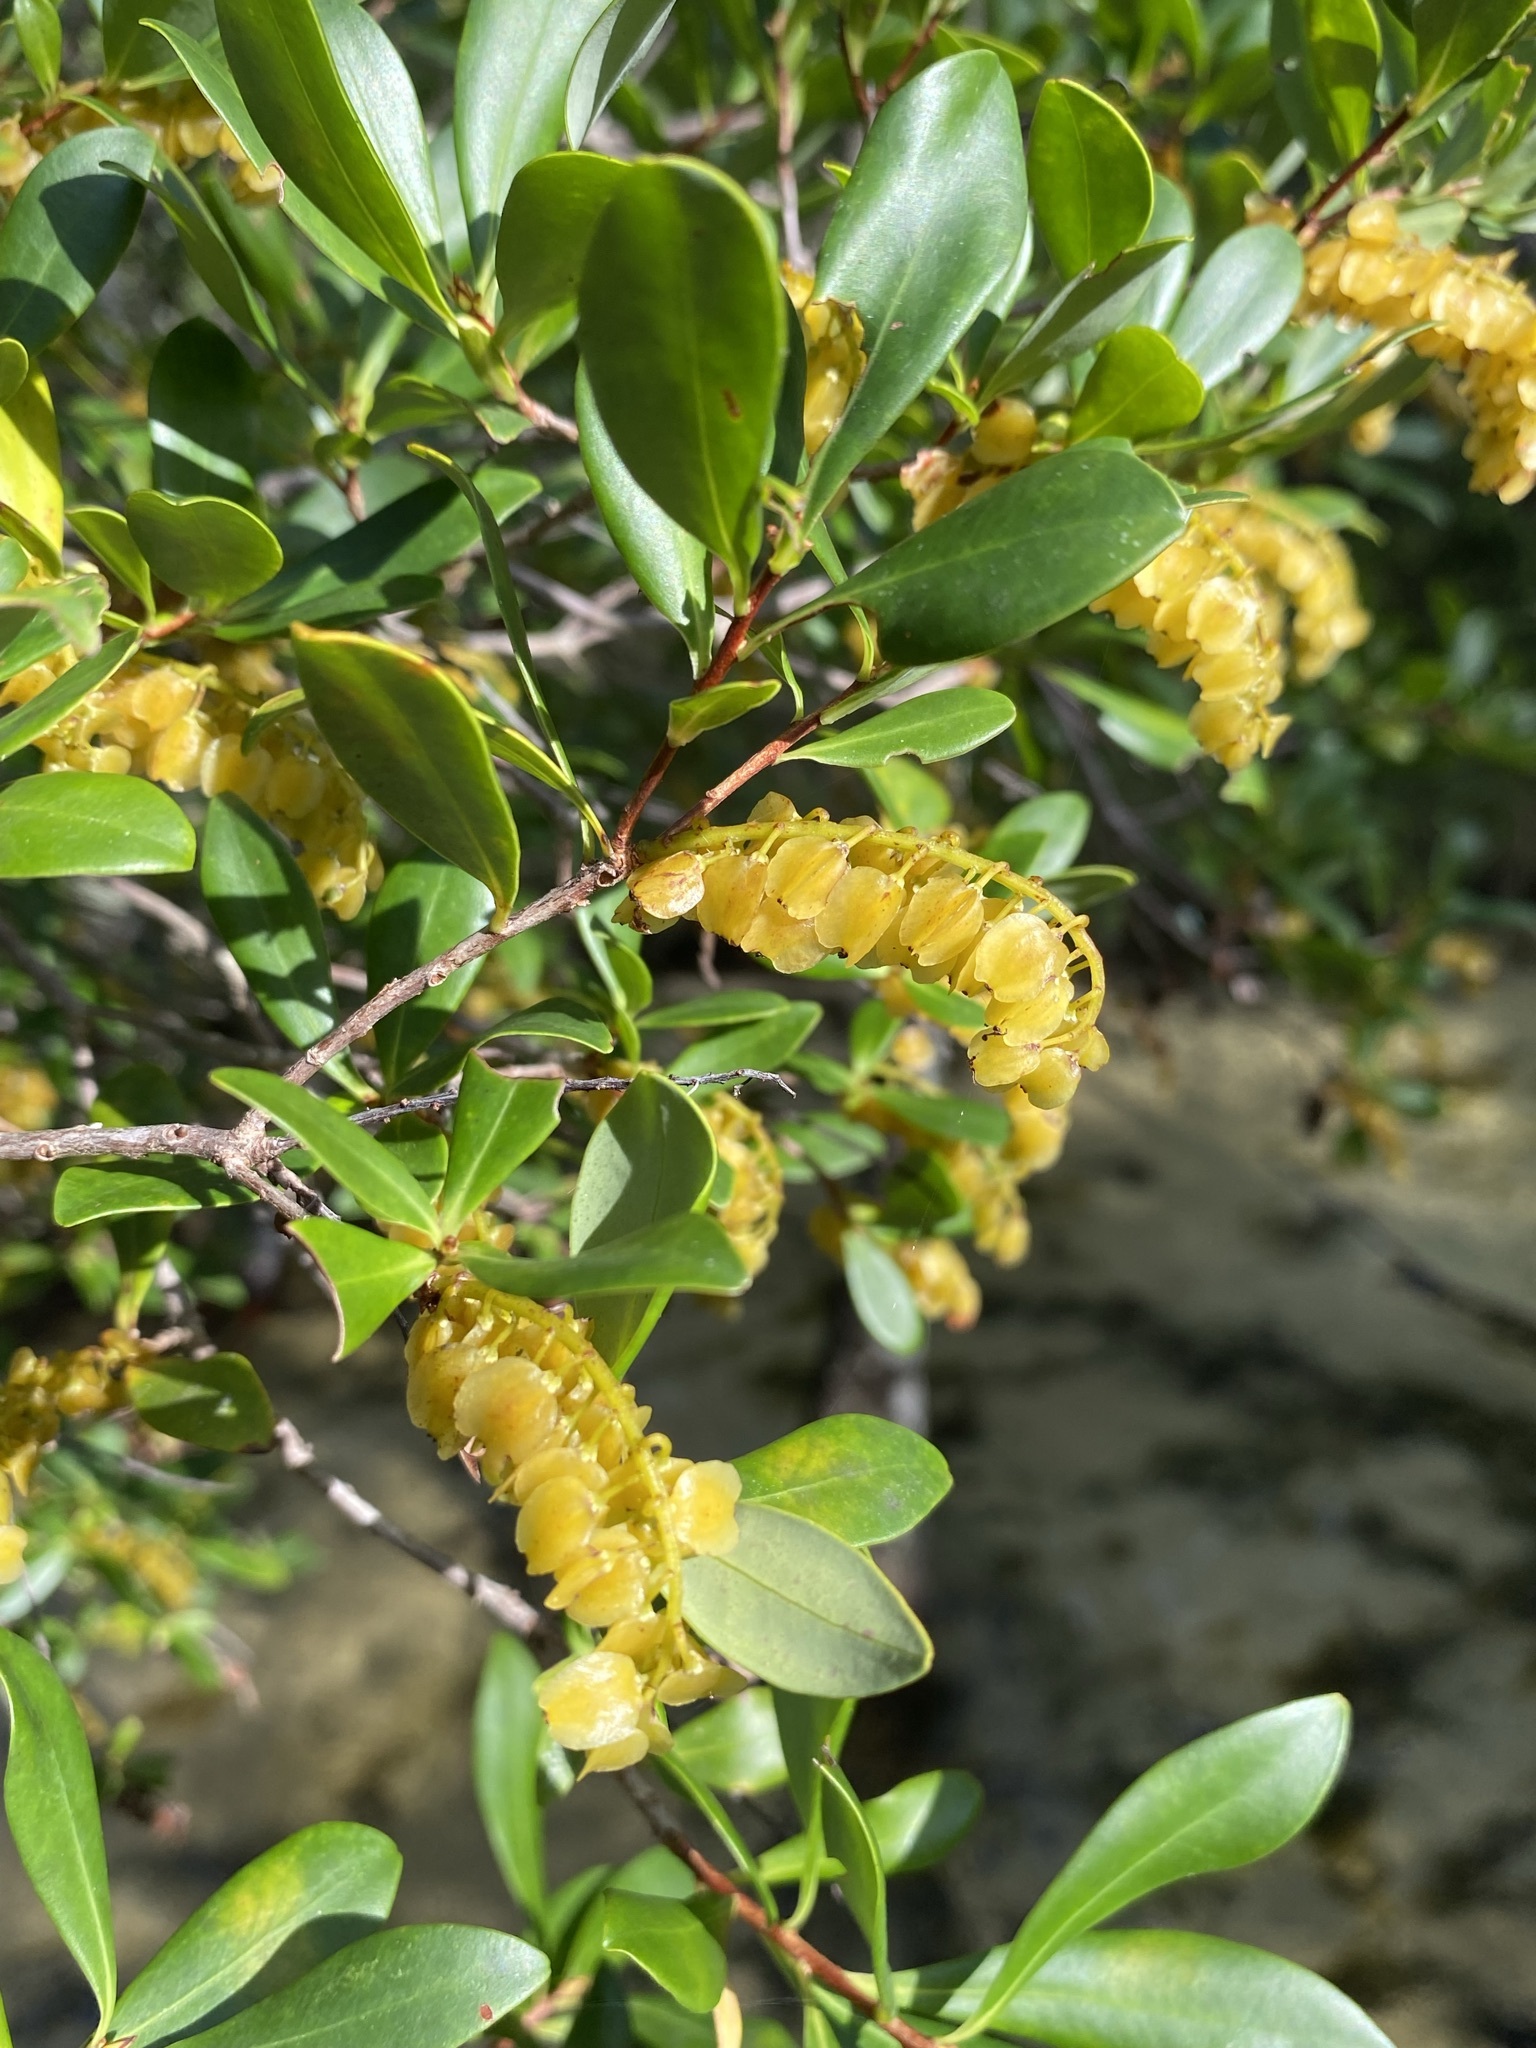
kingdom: Plantae
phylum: Tracheophyta
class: Magnoliopsida
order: Ericales
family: Cyrillaceae
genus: Cliftonia
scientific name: Cliftonia monophylla
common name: Titi
